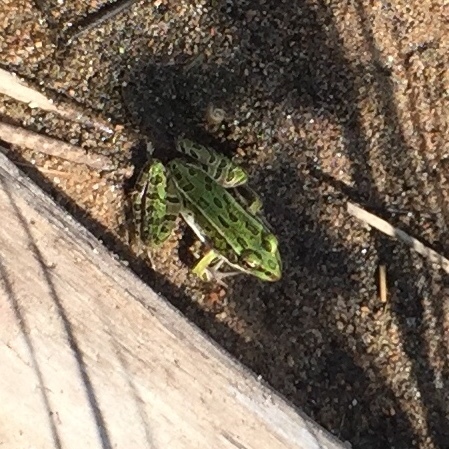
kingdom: Animalia
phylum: Chordata
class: Amphibia
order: Anura
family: Ranidae
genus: Lithobates
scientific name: Lithobates pipiens
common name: Northern leopard frog
